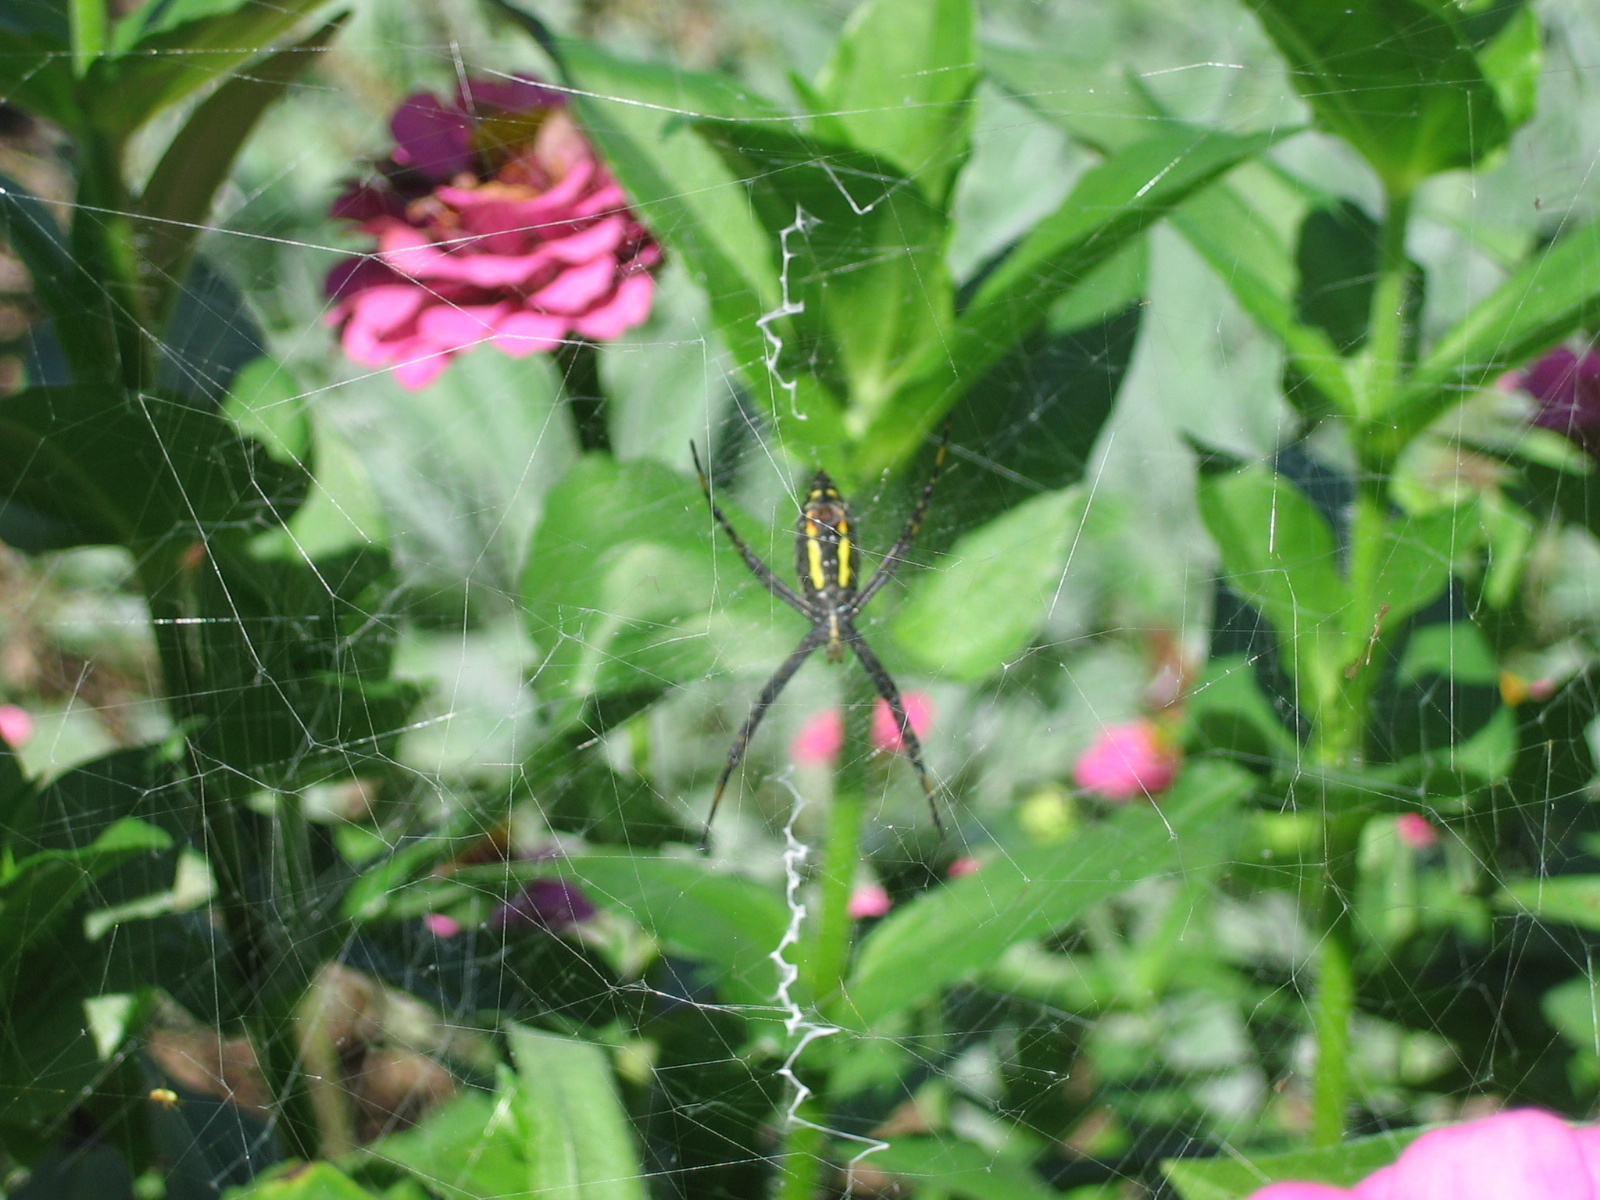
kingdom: Animalia
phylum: Arthropoda
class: Arachnida
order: Araneae
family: Araneidae
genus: Argiope
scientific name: Argiope aurantia
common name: Orb weavers
